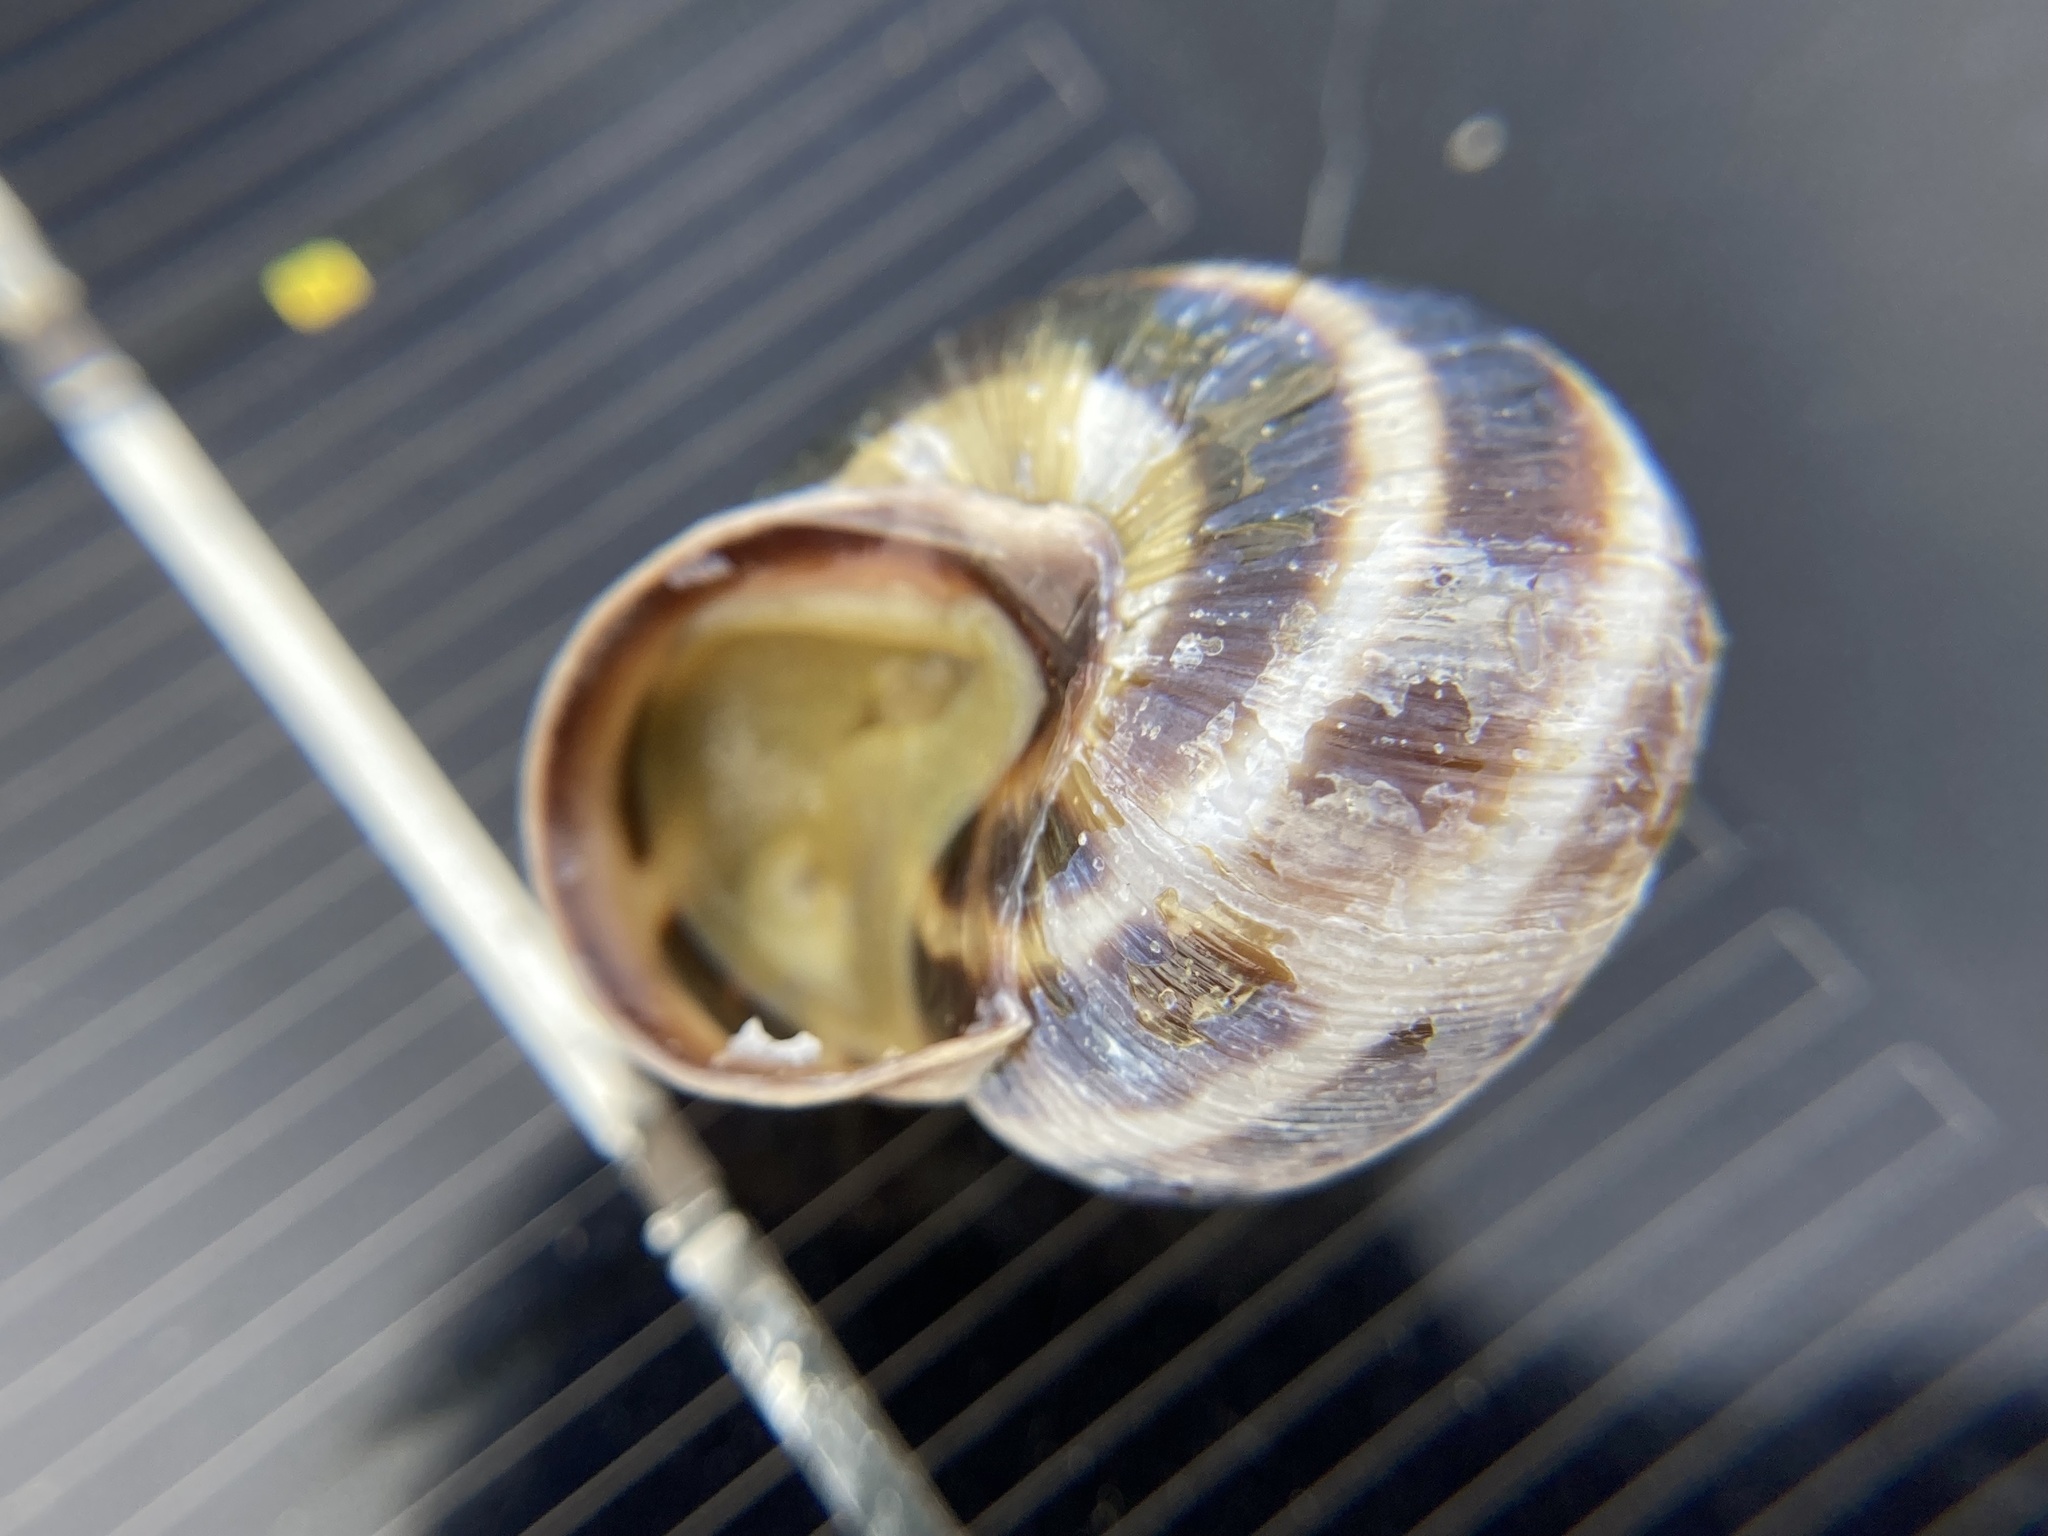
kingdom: Animalia
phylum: Mollusca
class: Gastropoda
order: Stylommatophora
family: Helicidae
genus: Caucasotachea
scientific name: Caucasotachea vindobonensis
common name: European helicid land snail
